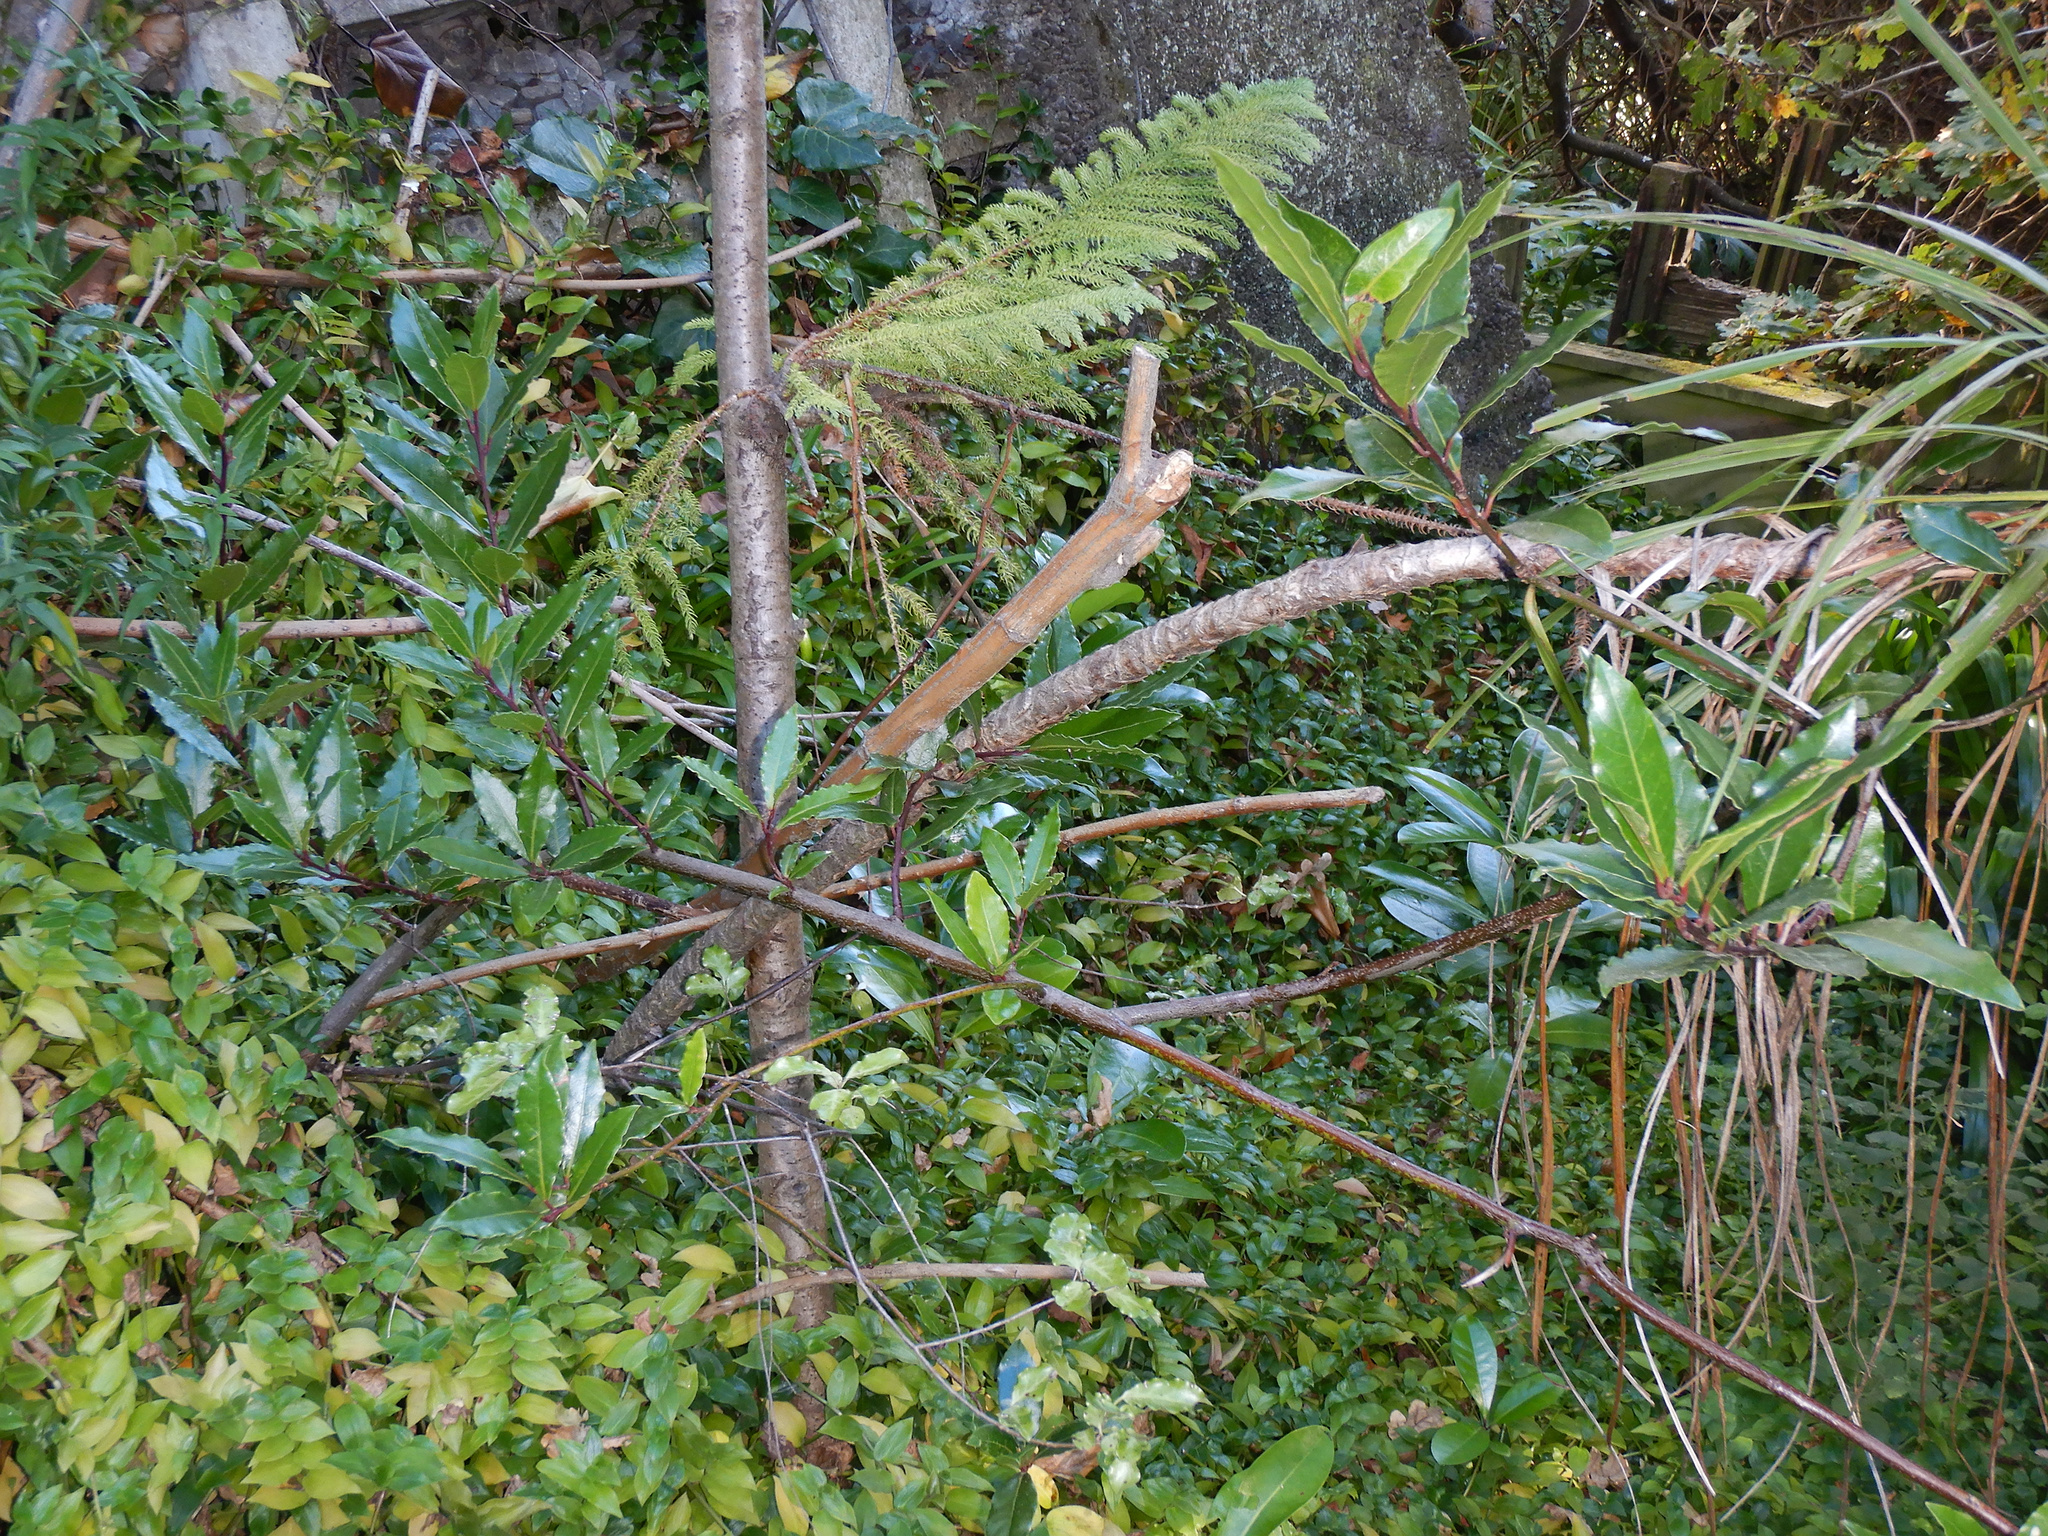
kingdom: Plantae
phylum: Tracheophyta
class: Liliopsida
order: Commelinales
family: Commelinaceae
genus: Tradescantia
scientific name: Tradescantia fluminensis
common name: Wandering-jew
